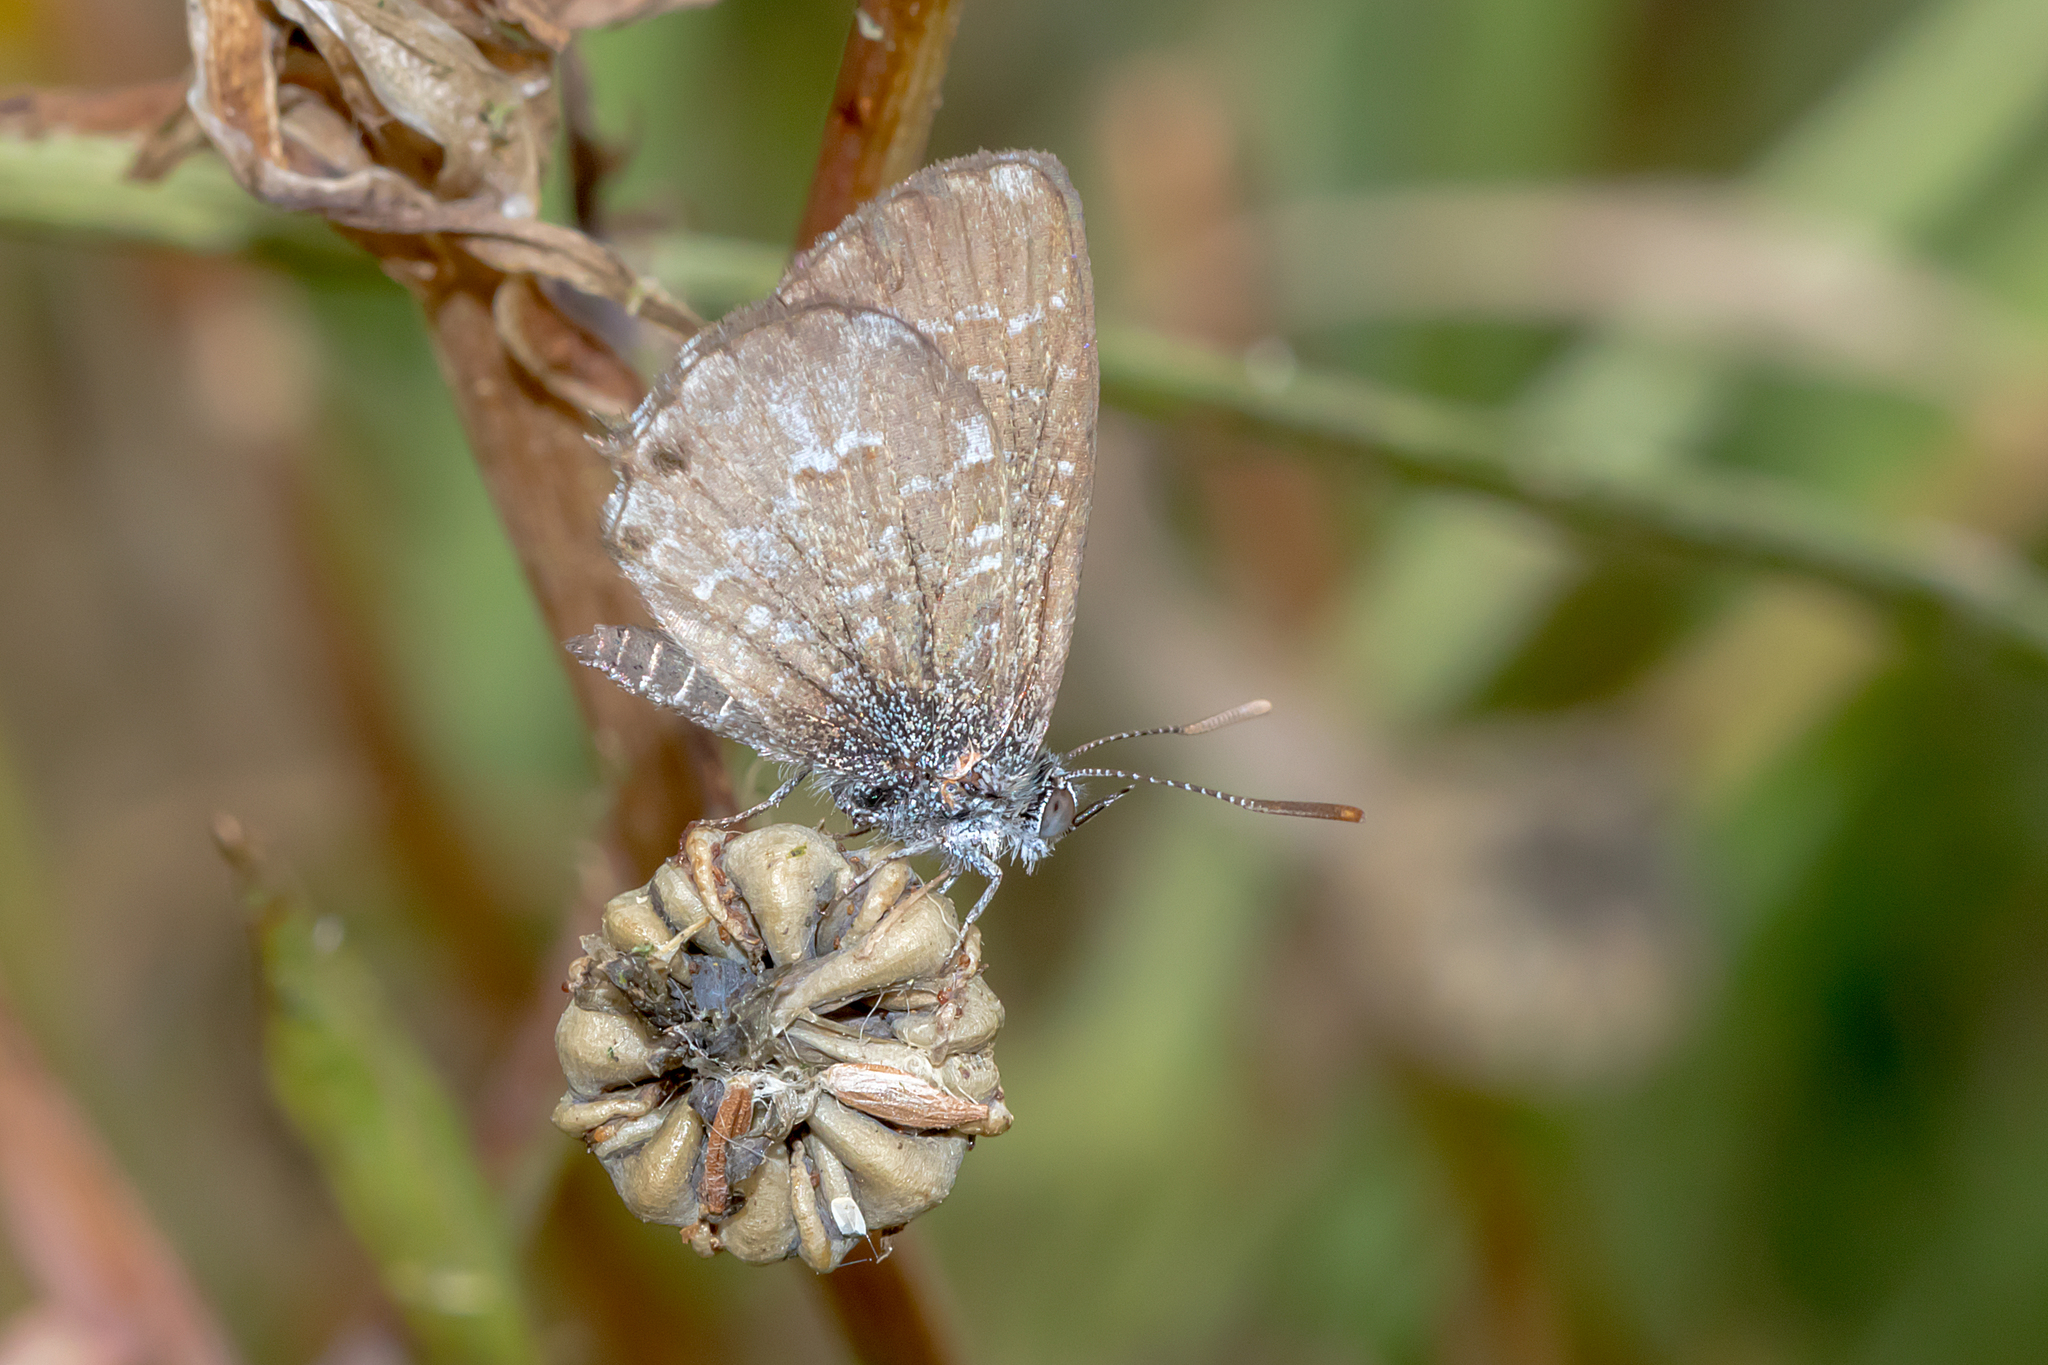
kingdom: Animalia
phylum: Arthropoda
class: Insecta
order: Lepidoptera
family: Lycaenidae
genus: Theclinesthes
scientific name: Theclinesthes serpentata
